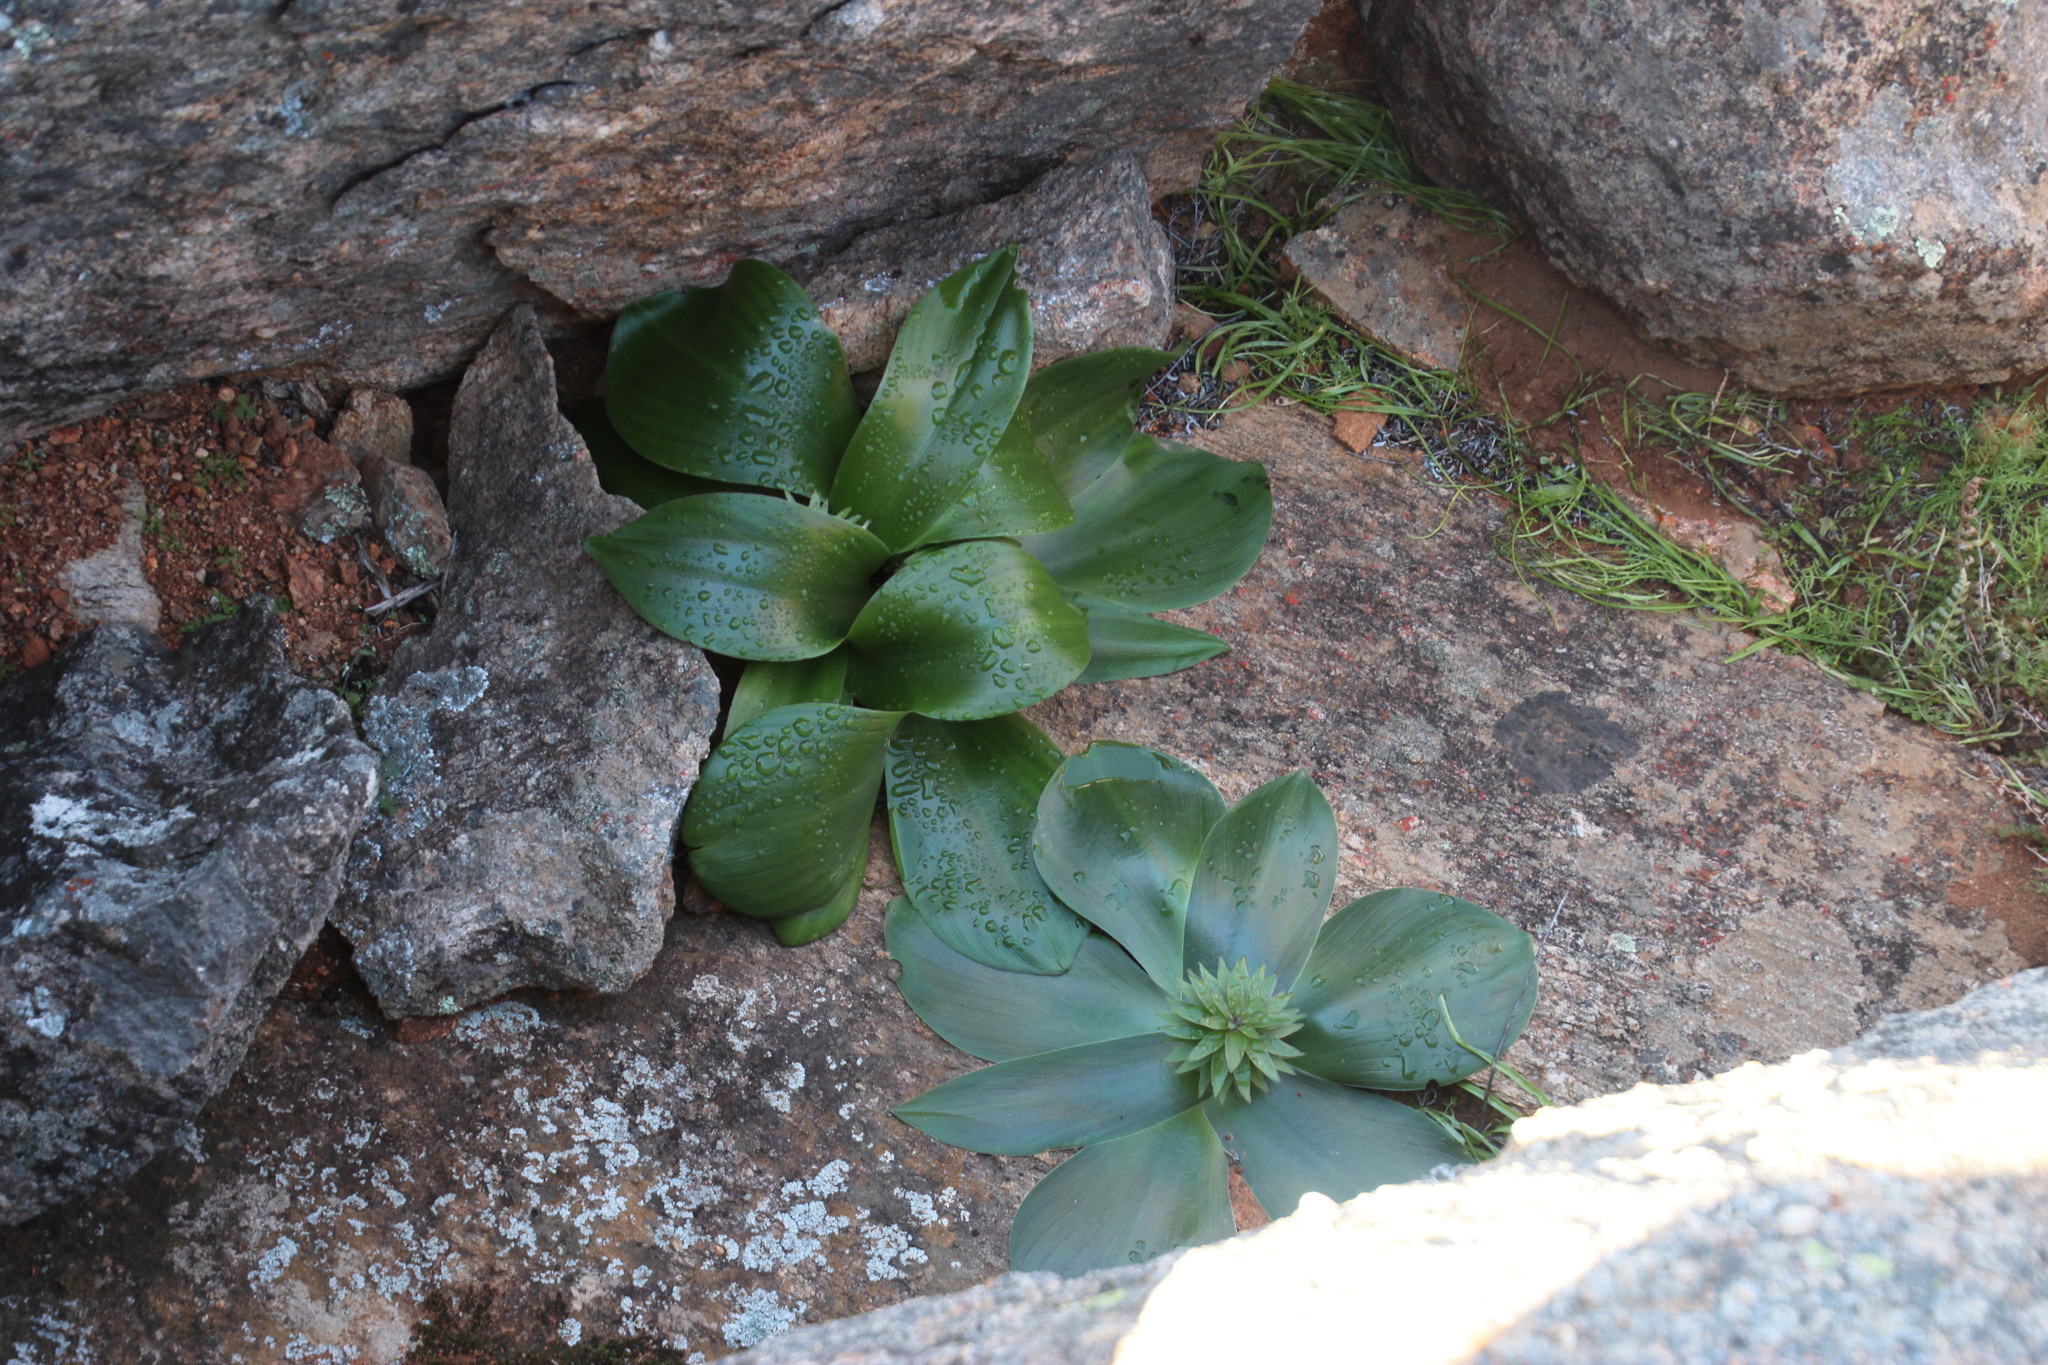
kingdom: Plantae
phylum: Tracheophyta
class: Liliopsida
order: Asparagales
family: Asparagaceae
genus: Eucomis
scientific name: Eucomis regia
